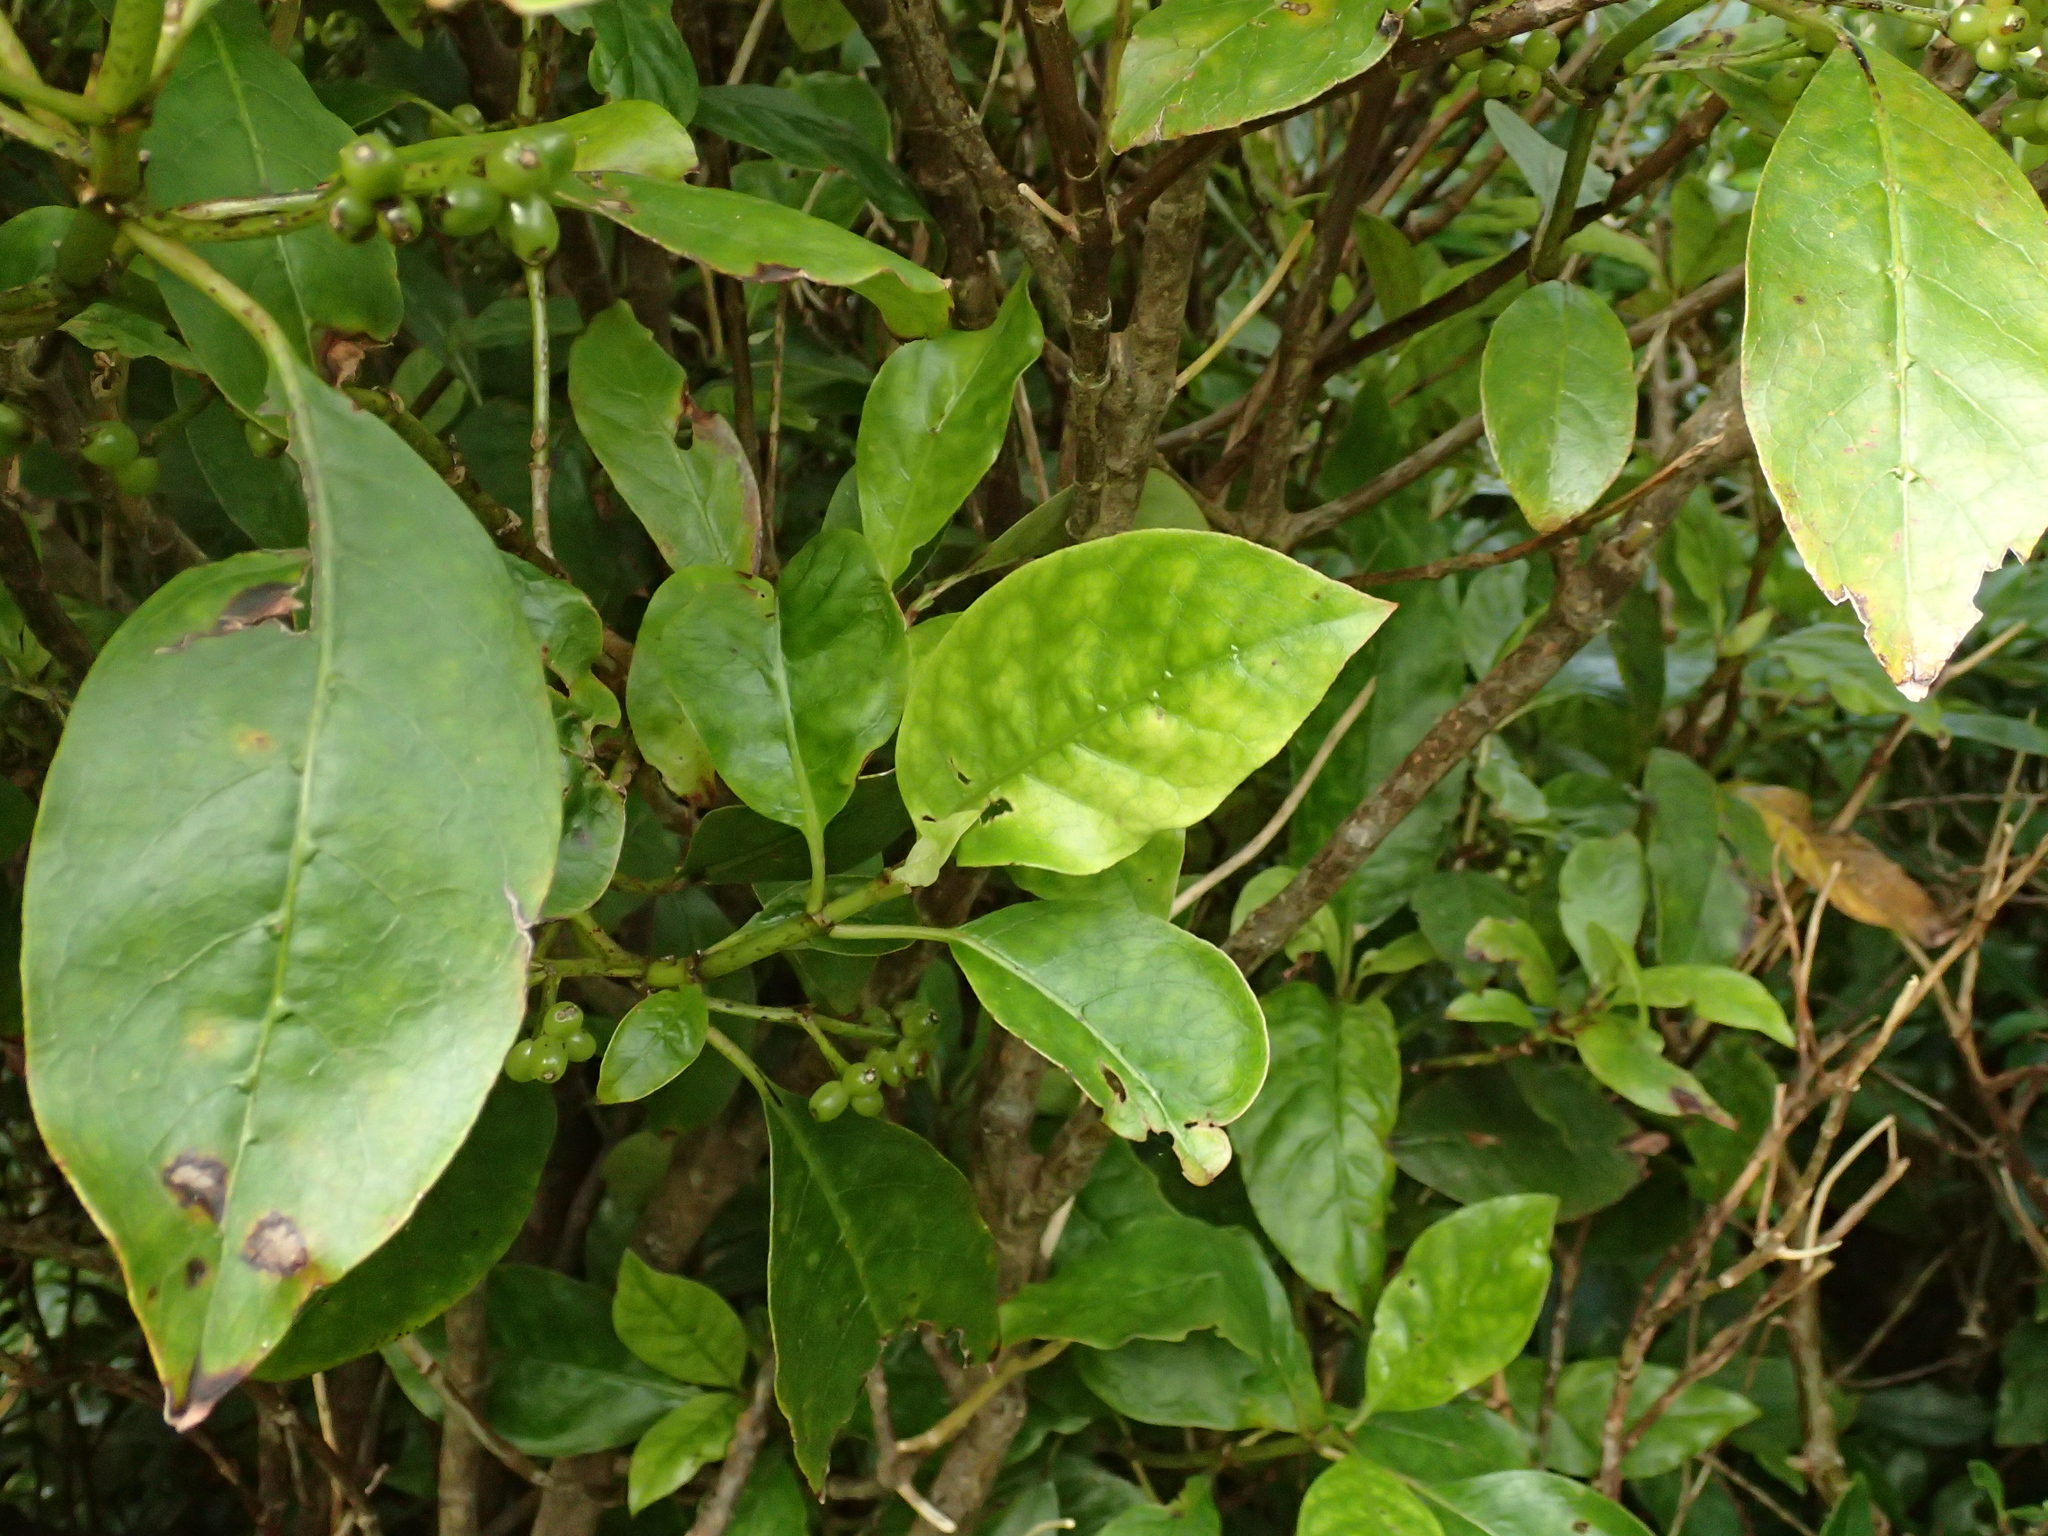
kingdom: Plantae
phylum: Tracheophyta
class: Magnoliopsida
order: Gentianales
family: Rubiaceae
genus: Coprosma
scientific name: Coprosma autumnalis
